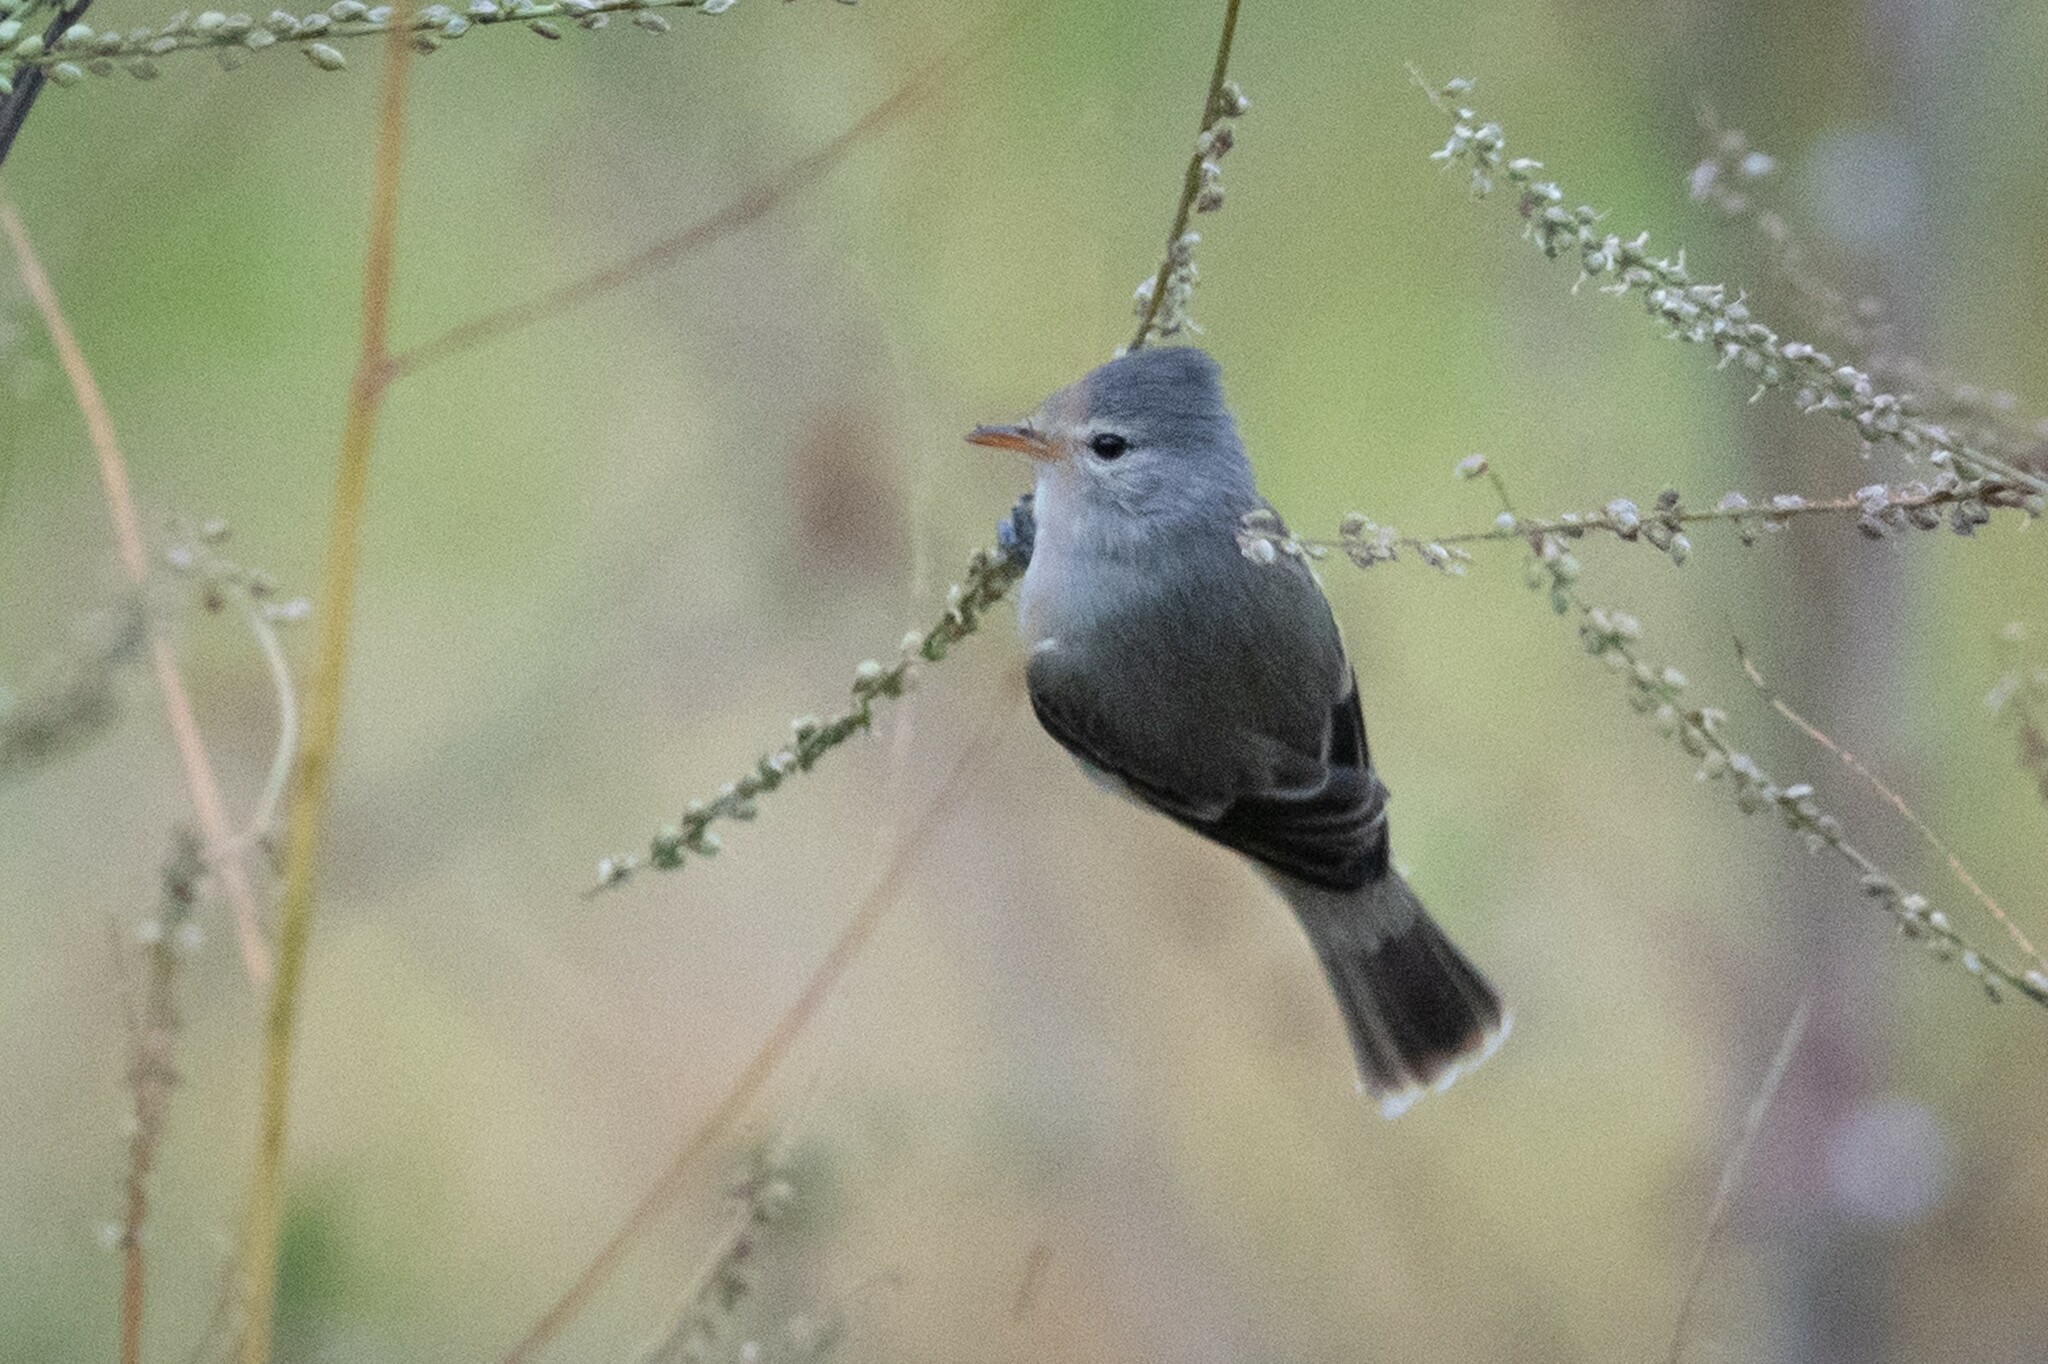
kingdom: Animalia
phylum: Chordata
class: Aves
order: Passeriformes
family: Tyrannidae
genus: Camptostoma
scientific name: Camptostoma obsoletum
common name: Southern beardless-tyrannulet
